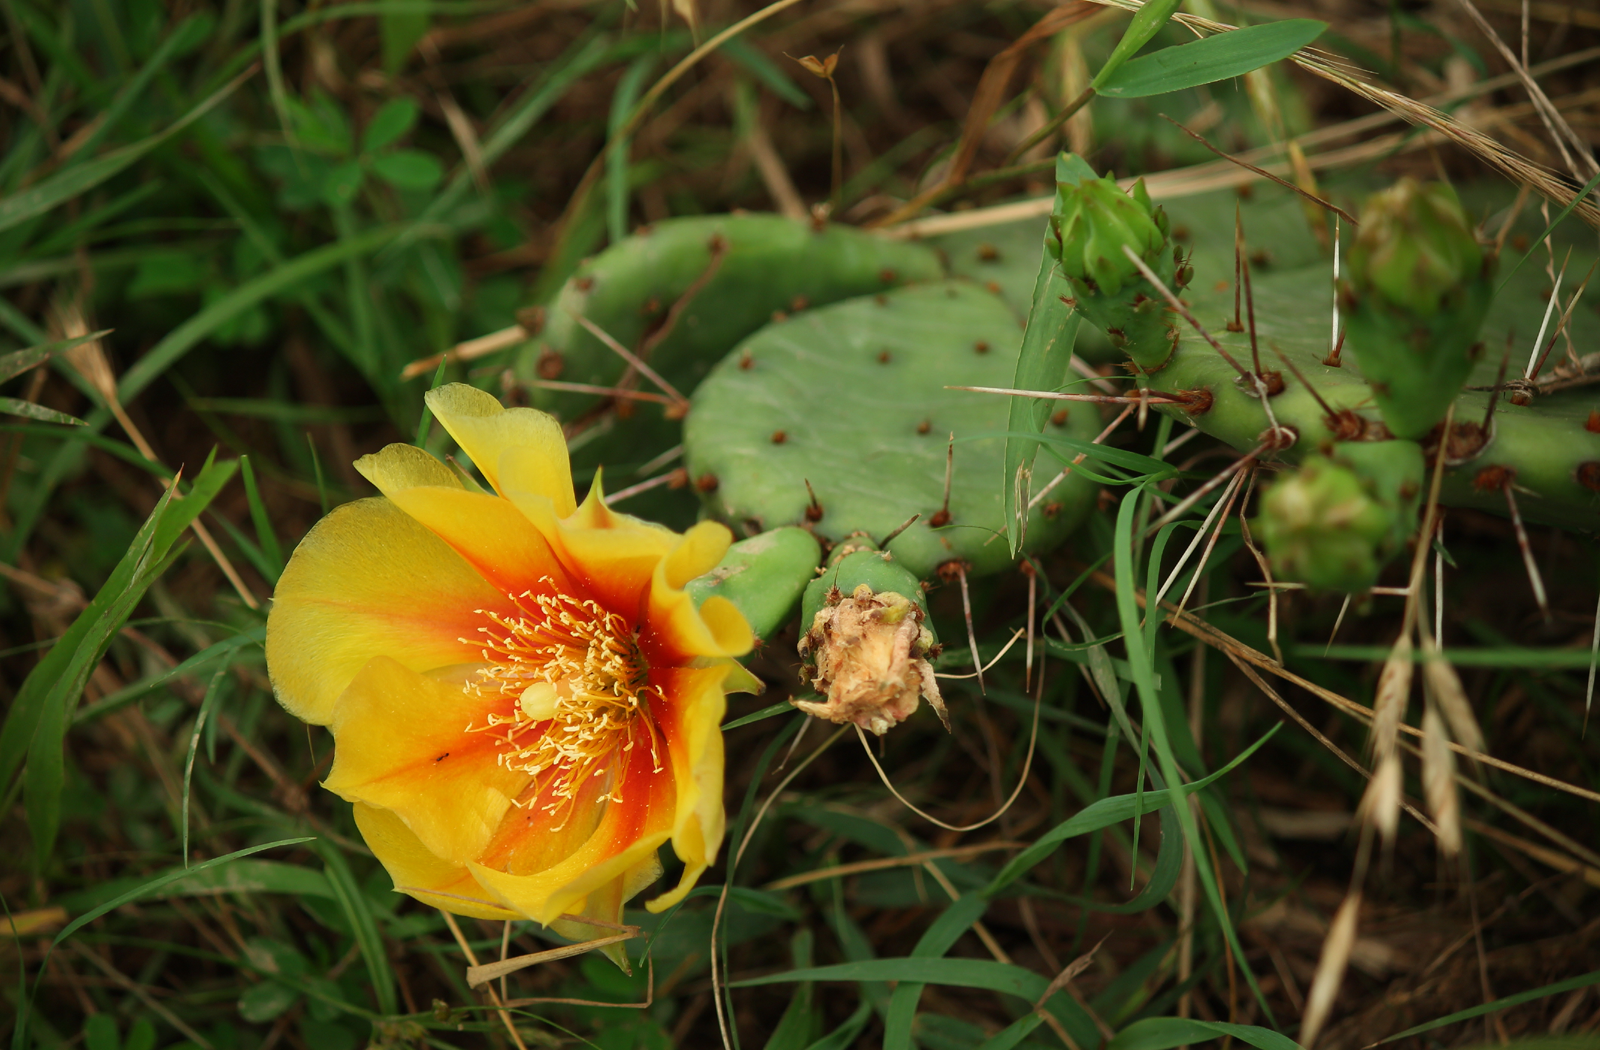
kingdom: Plantae
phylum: Tracheophyta
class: Magnoliopsida
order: Caryophyllales
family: Cactaceae
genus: Opuntia
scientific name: Opuntia macrorhiza
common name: Grassland pricklypear
